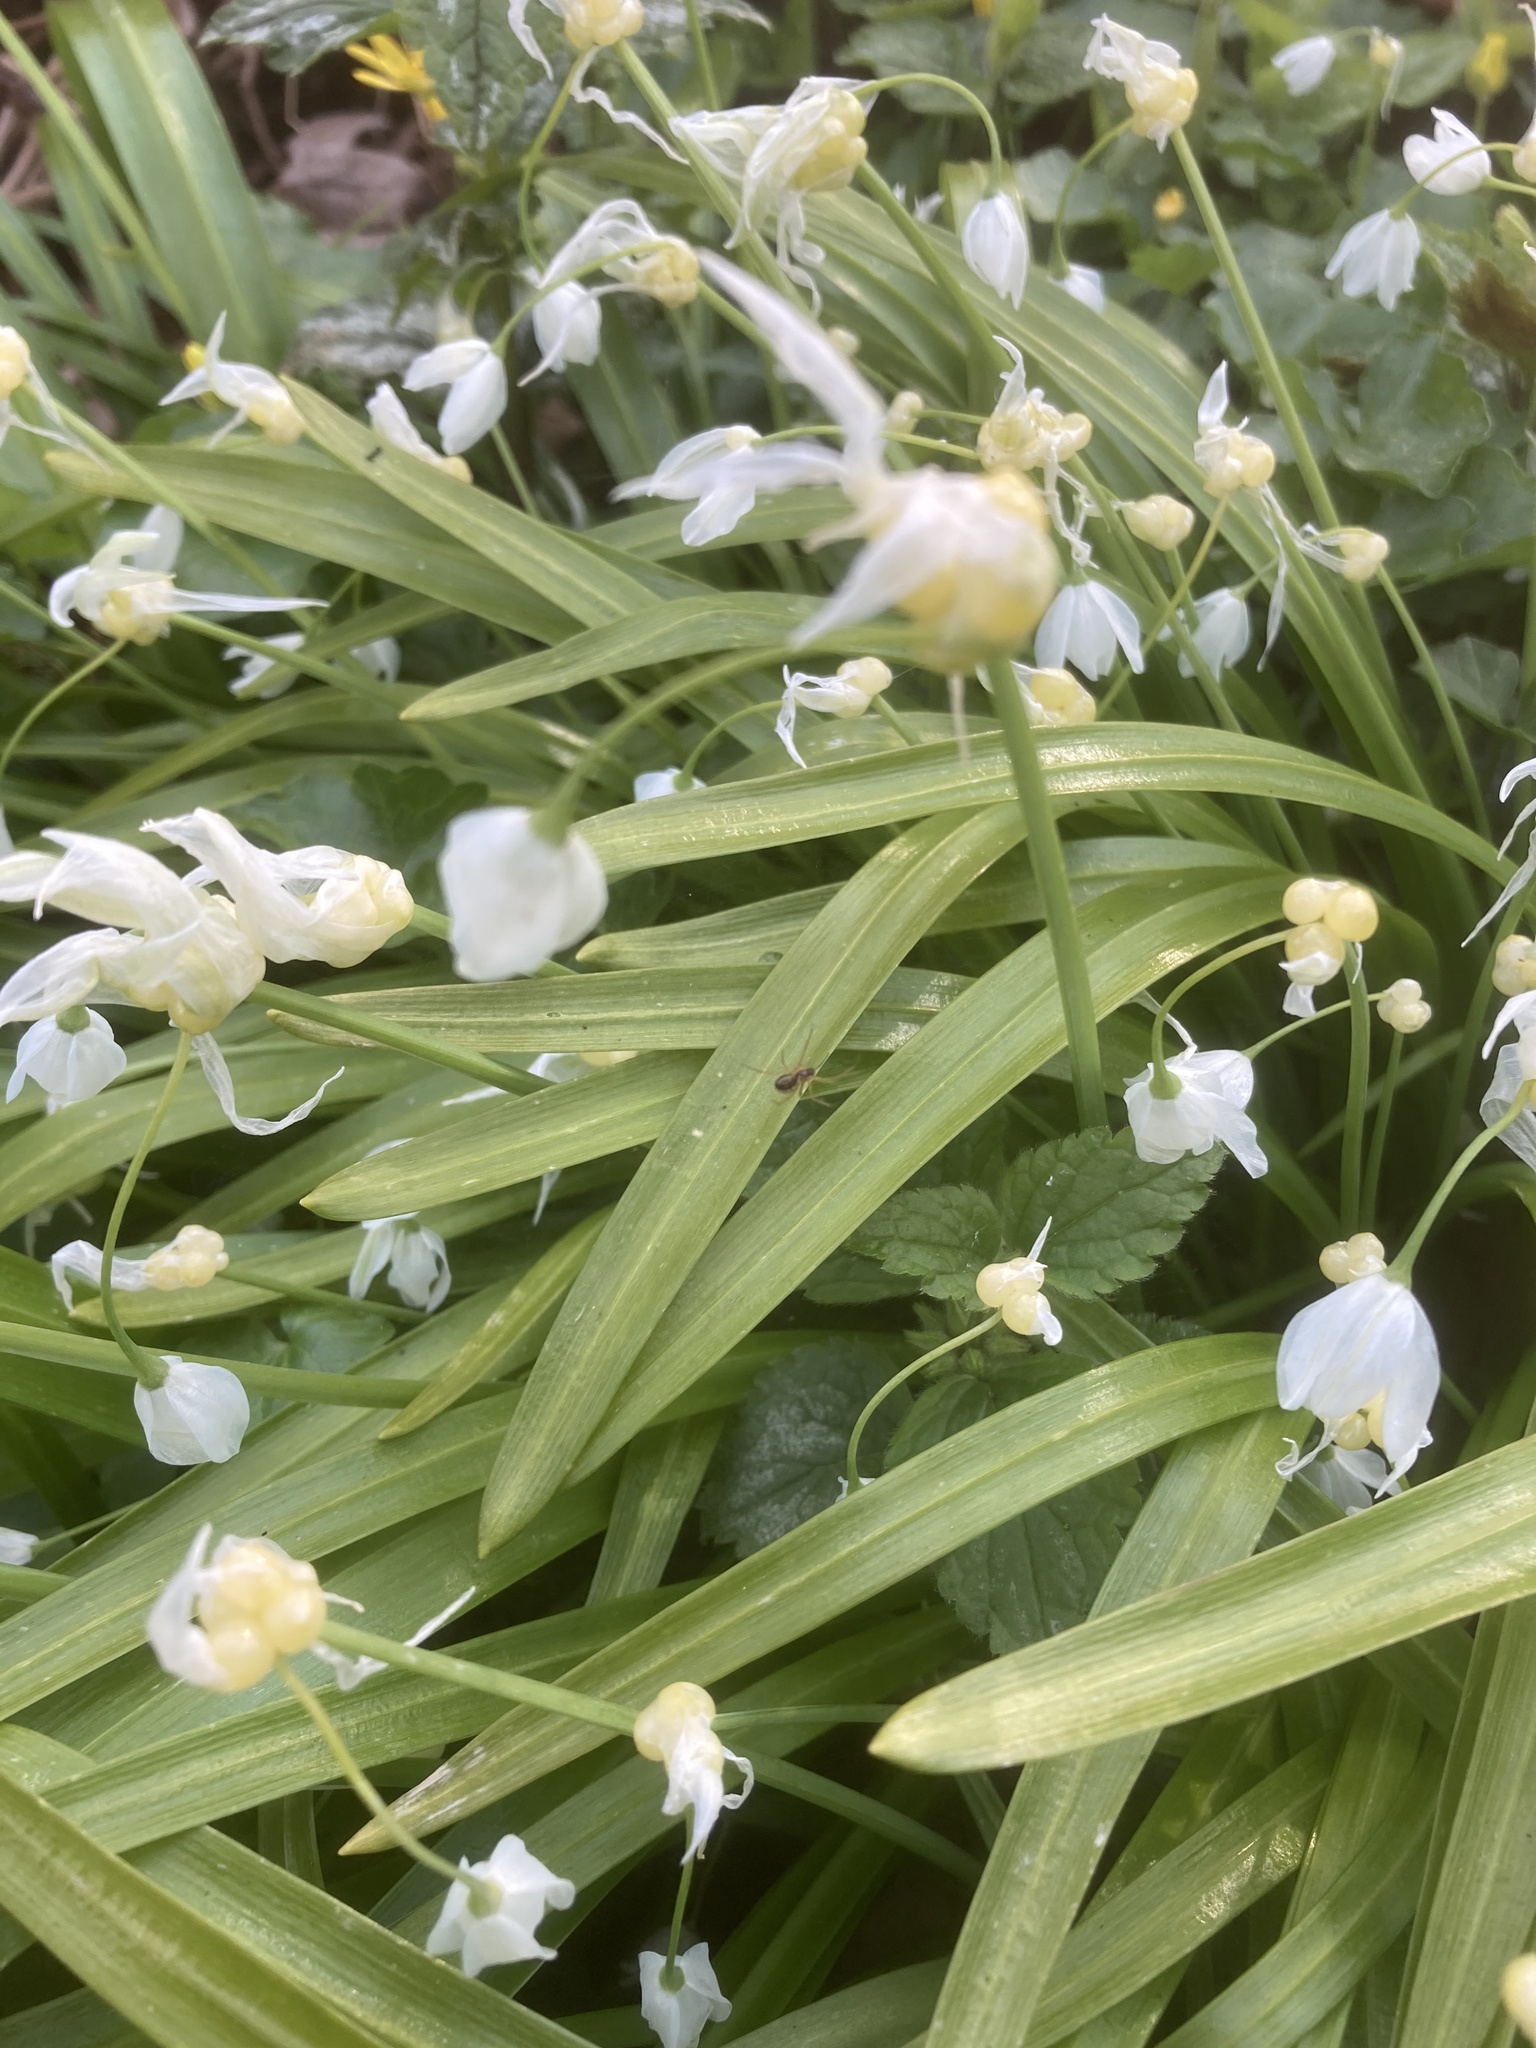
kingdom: Plantae
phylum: Tracheophyta
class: Liliopsida
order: Asparagales
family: Amaryllidaceae
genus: Allium
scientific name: Allium paradoxum
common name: Few-flowered garlic
